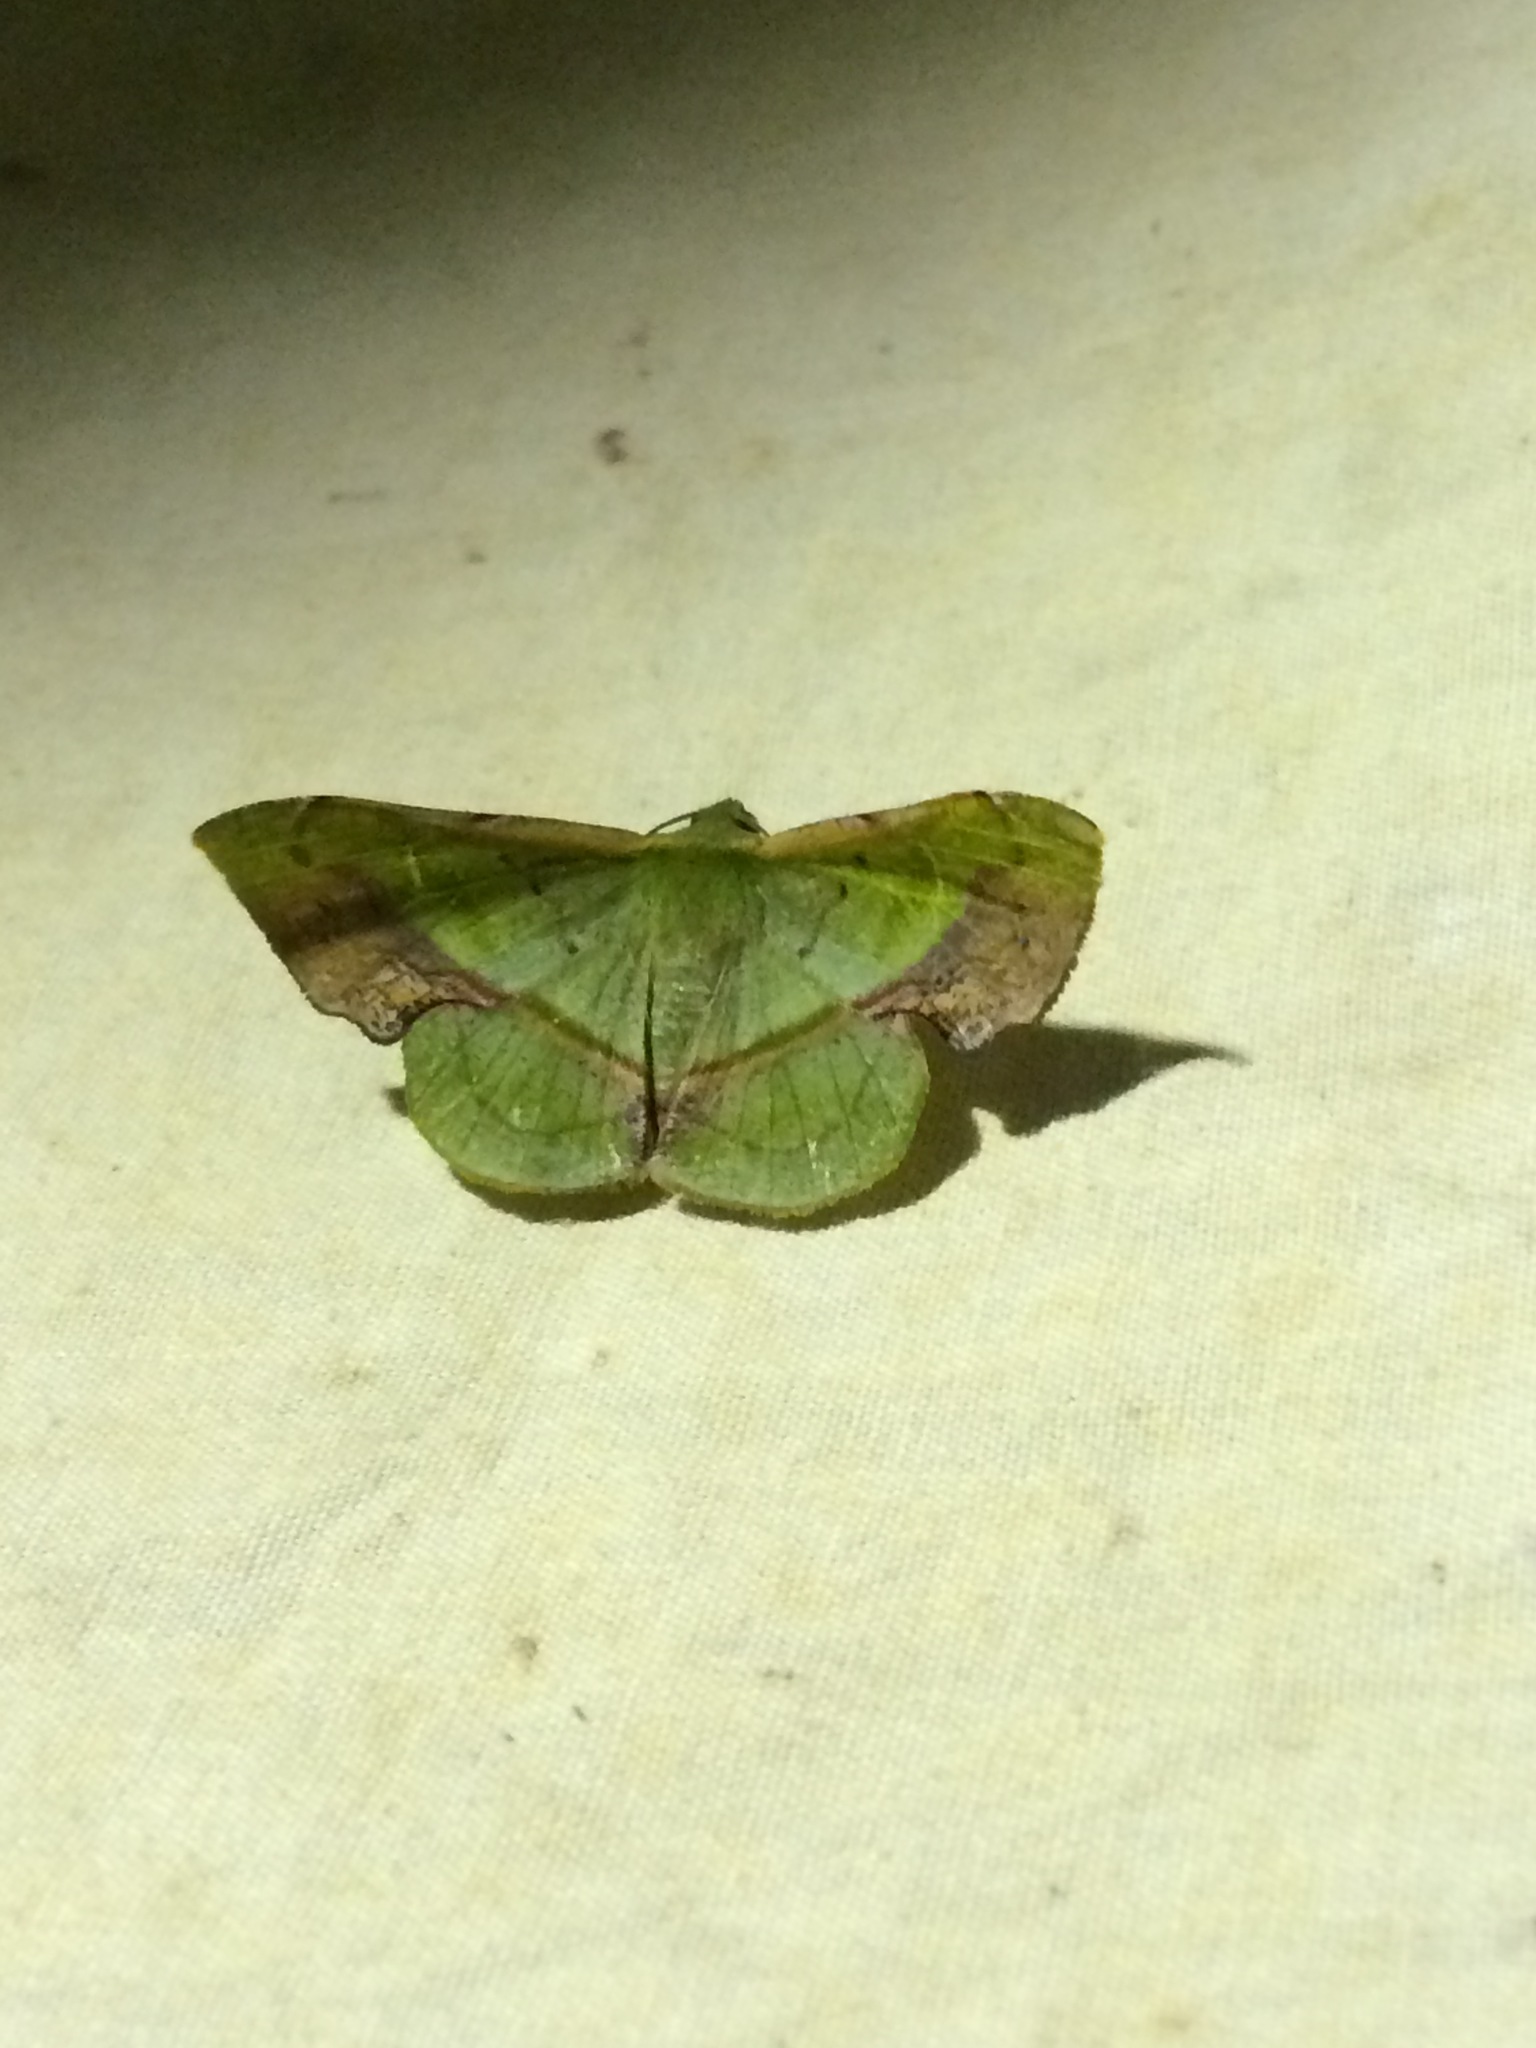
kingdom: Animalia
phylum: Arthropoda
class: Insecta
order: Lepidoptera
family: Geometridae
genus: Fascellina
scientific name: Fascellina plagiata
